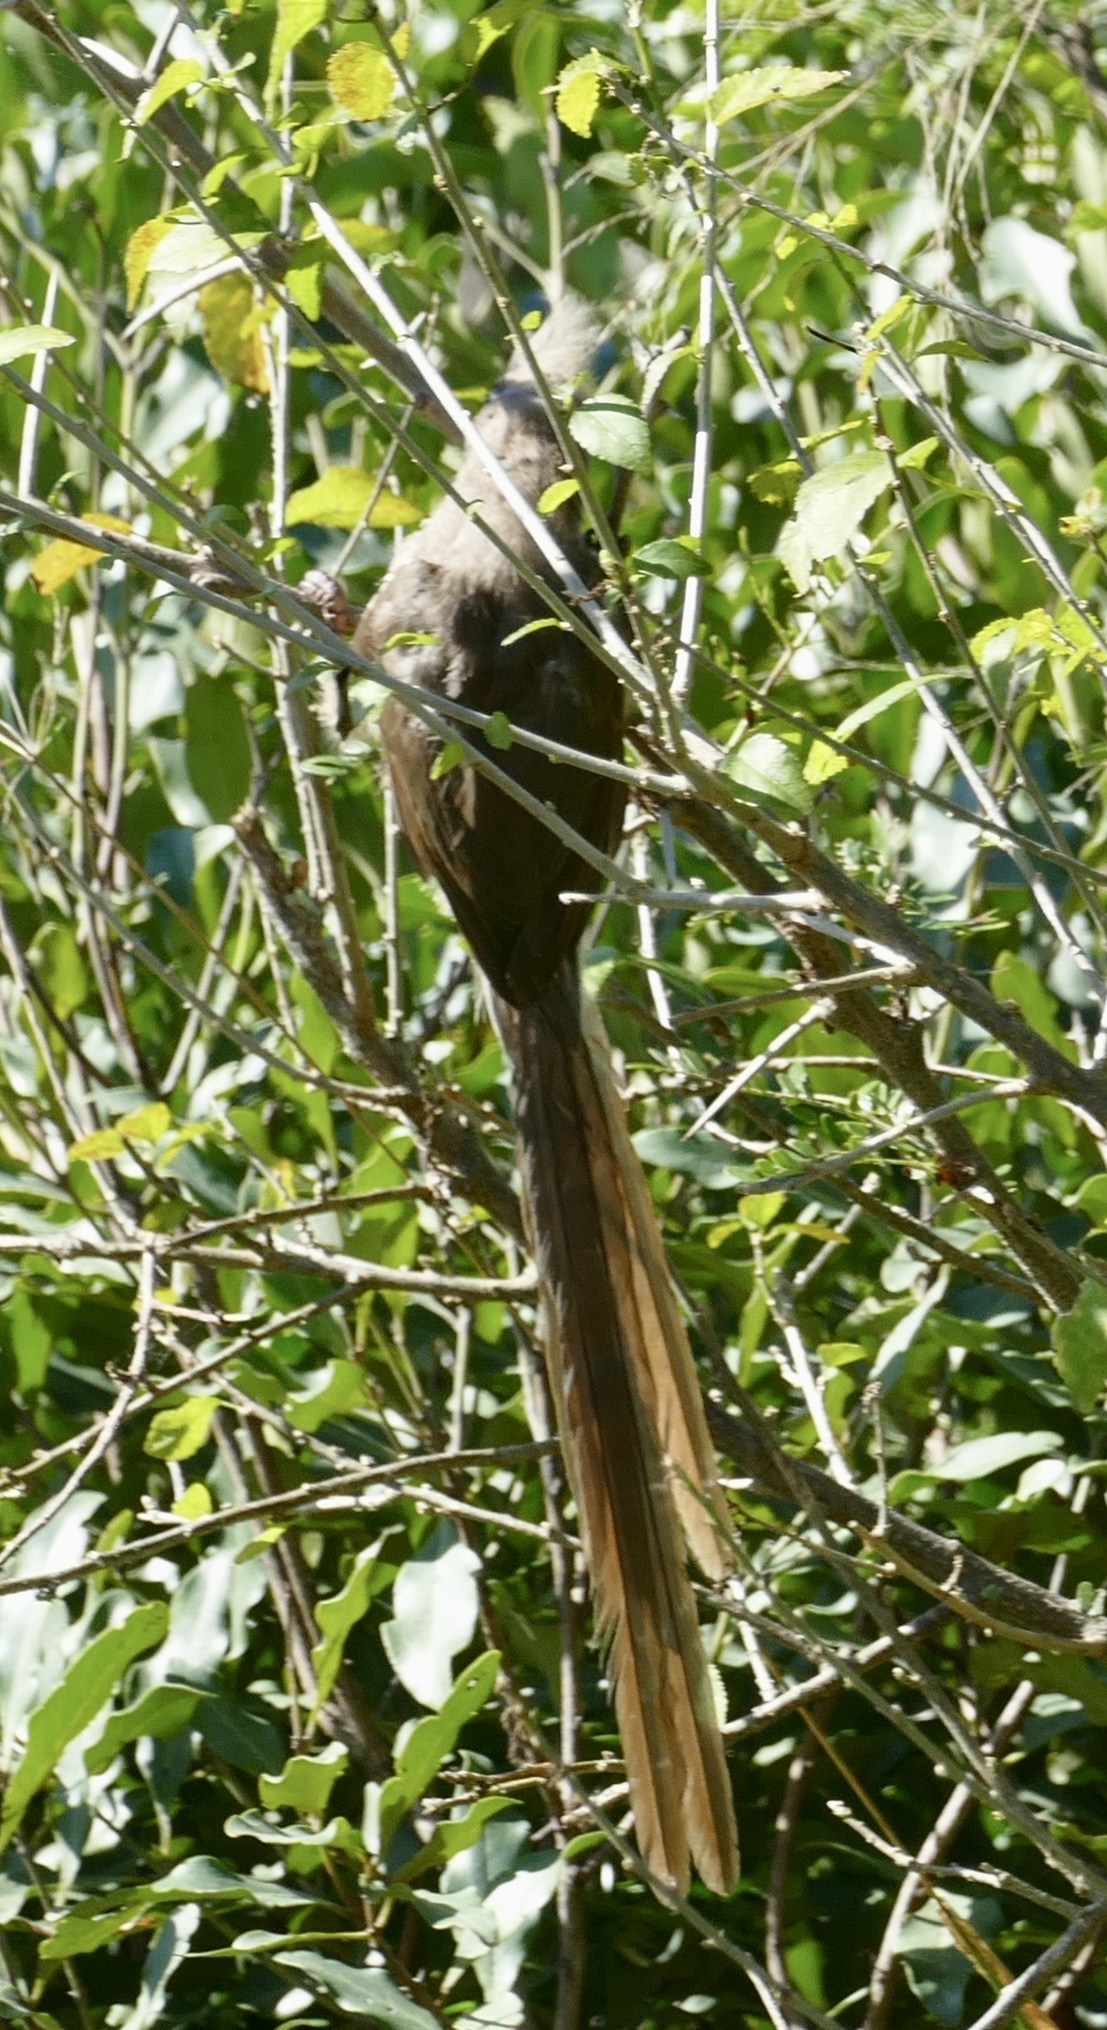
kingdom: Animalia
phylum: Chordata
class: Aves
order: Coliiformes
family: Coliidae
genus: Colius
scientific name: Colius striatus
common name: Speckled mousebird
